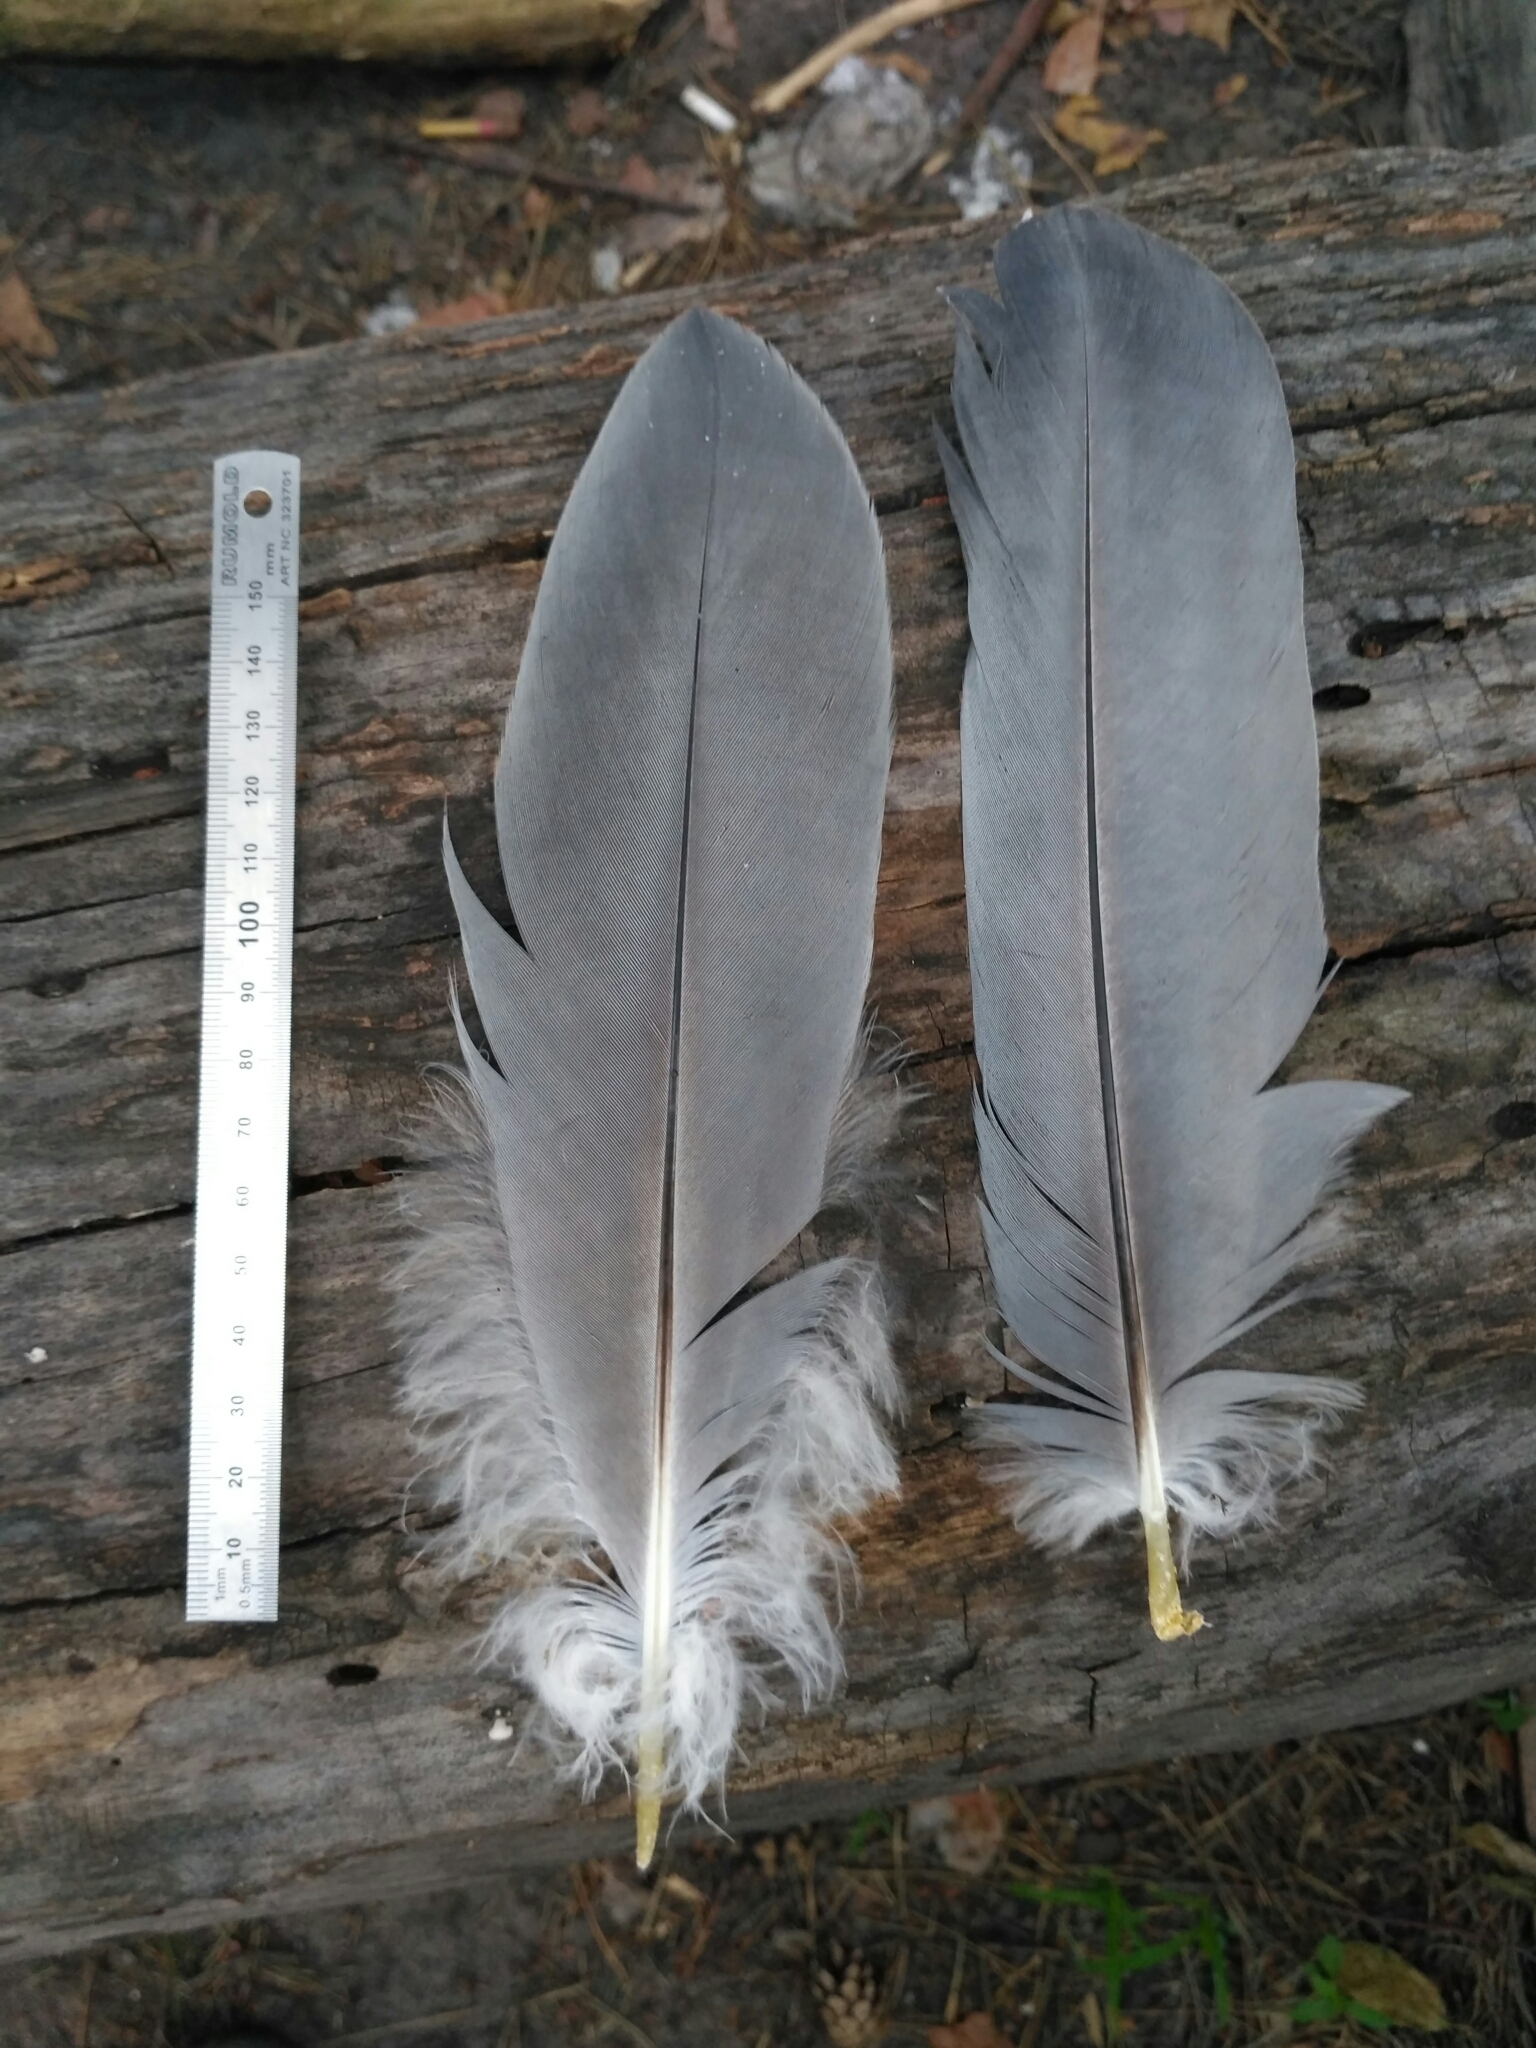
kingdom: Animalia
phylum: Chordata
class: Aves
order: Pelecaniformes
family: Ardeidae
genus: Ardea
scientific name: Ardea cinerea
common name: Grey heron
